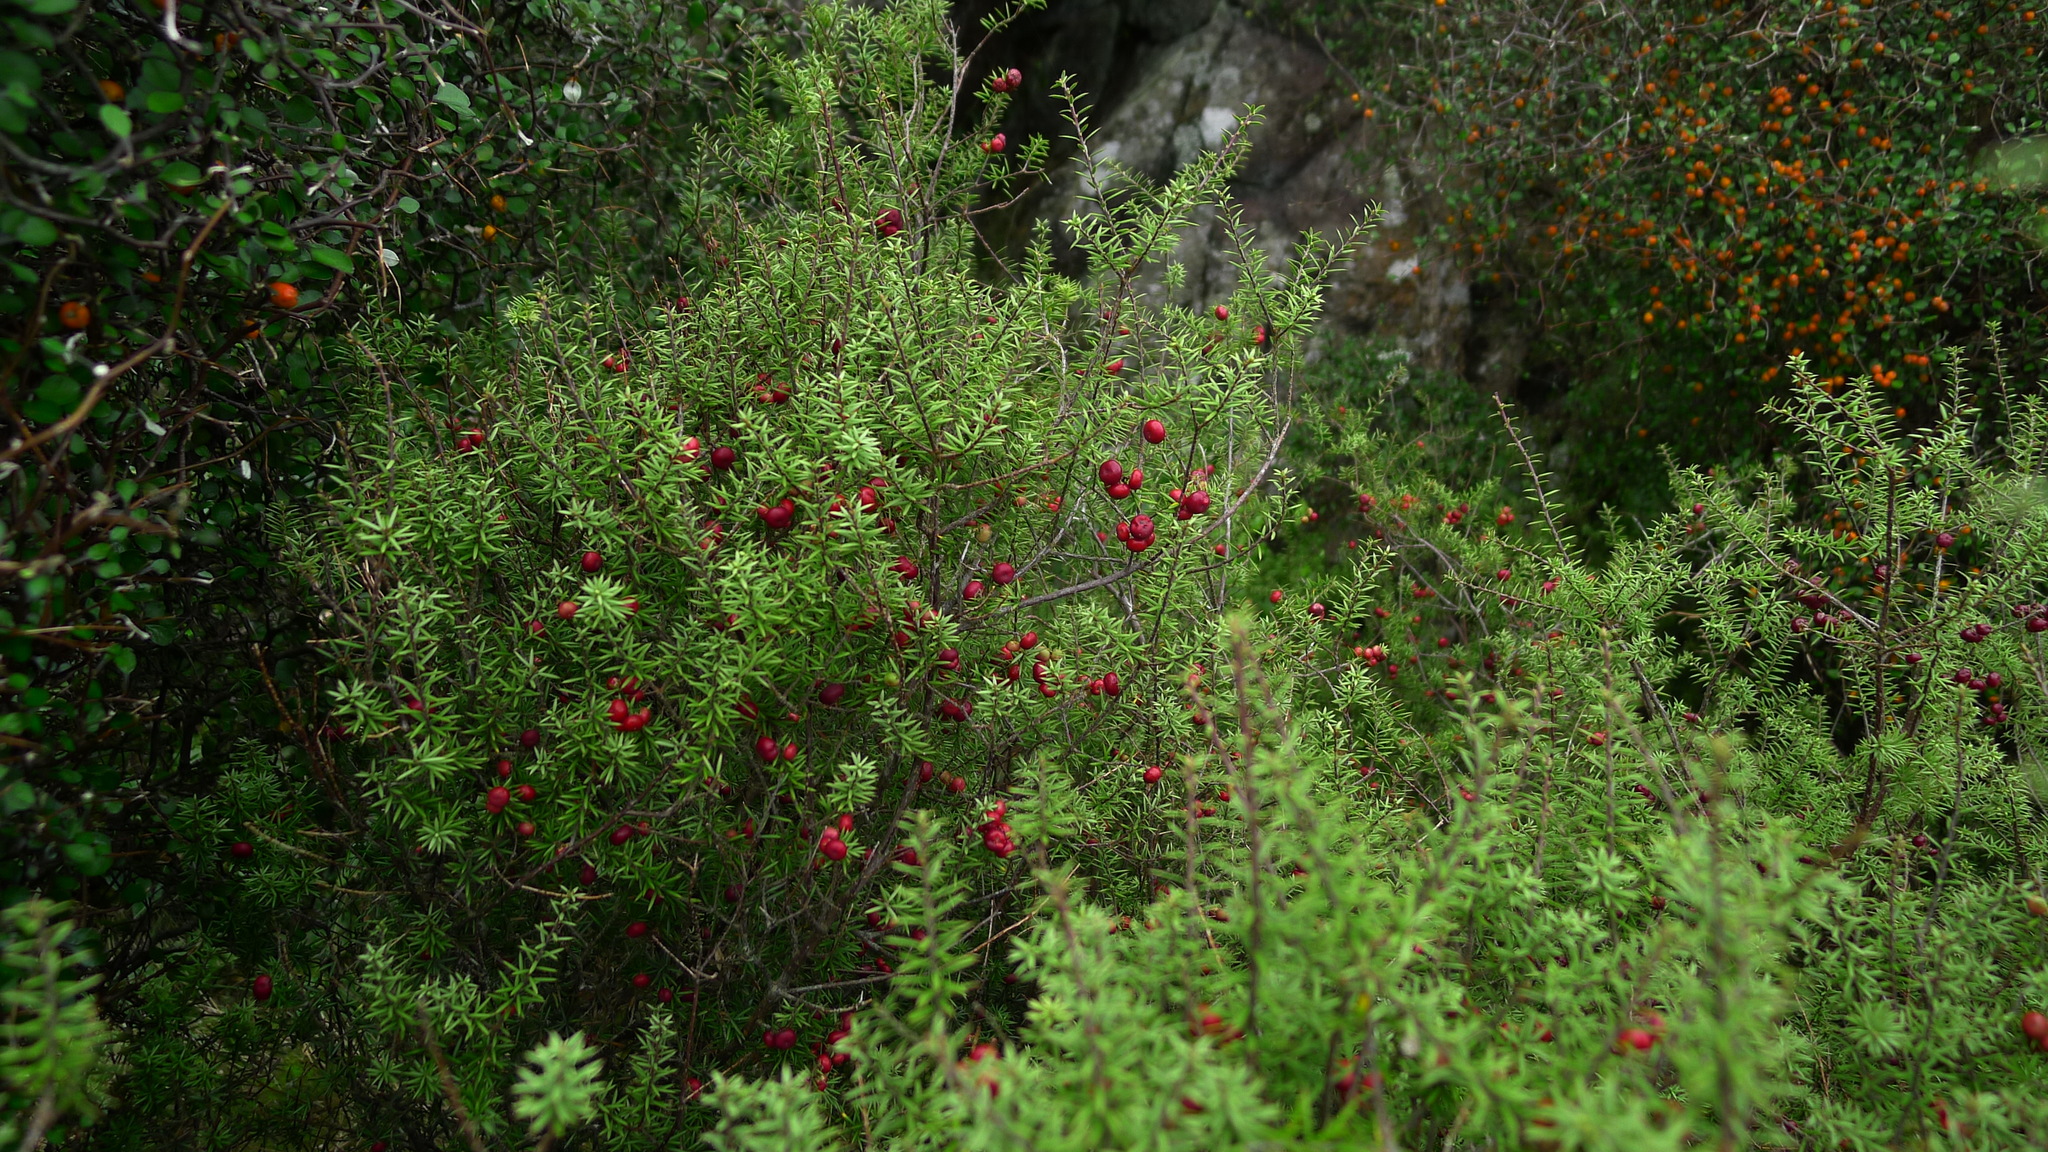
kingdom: Plantae
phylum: Tracheophyta
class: Magnoliopsida
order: Ericales
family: Ericaceae
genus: Leptecophylla
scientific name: Leptecophylla juniperina
